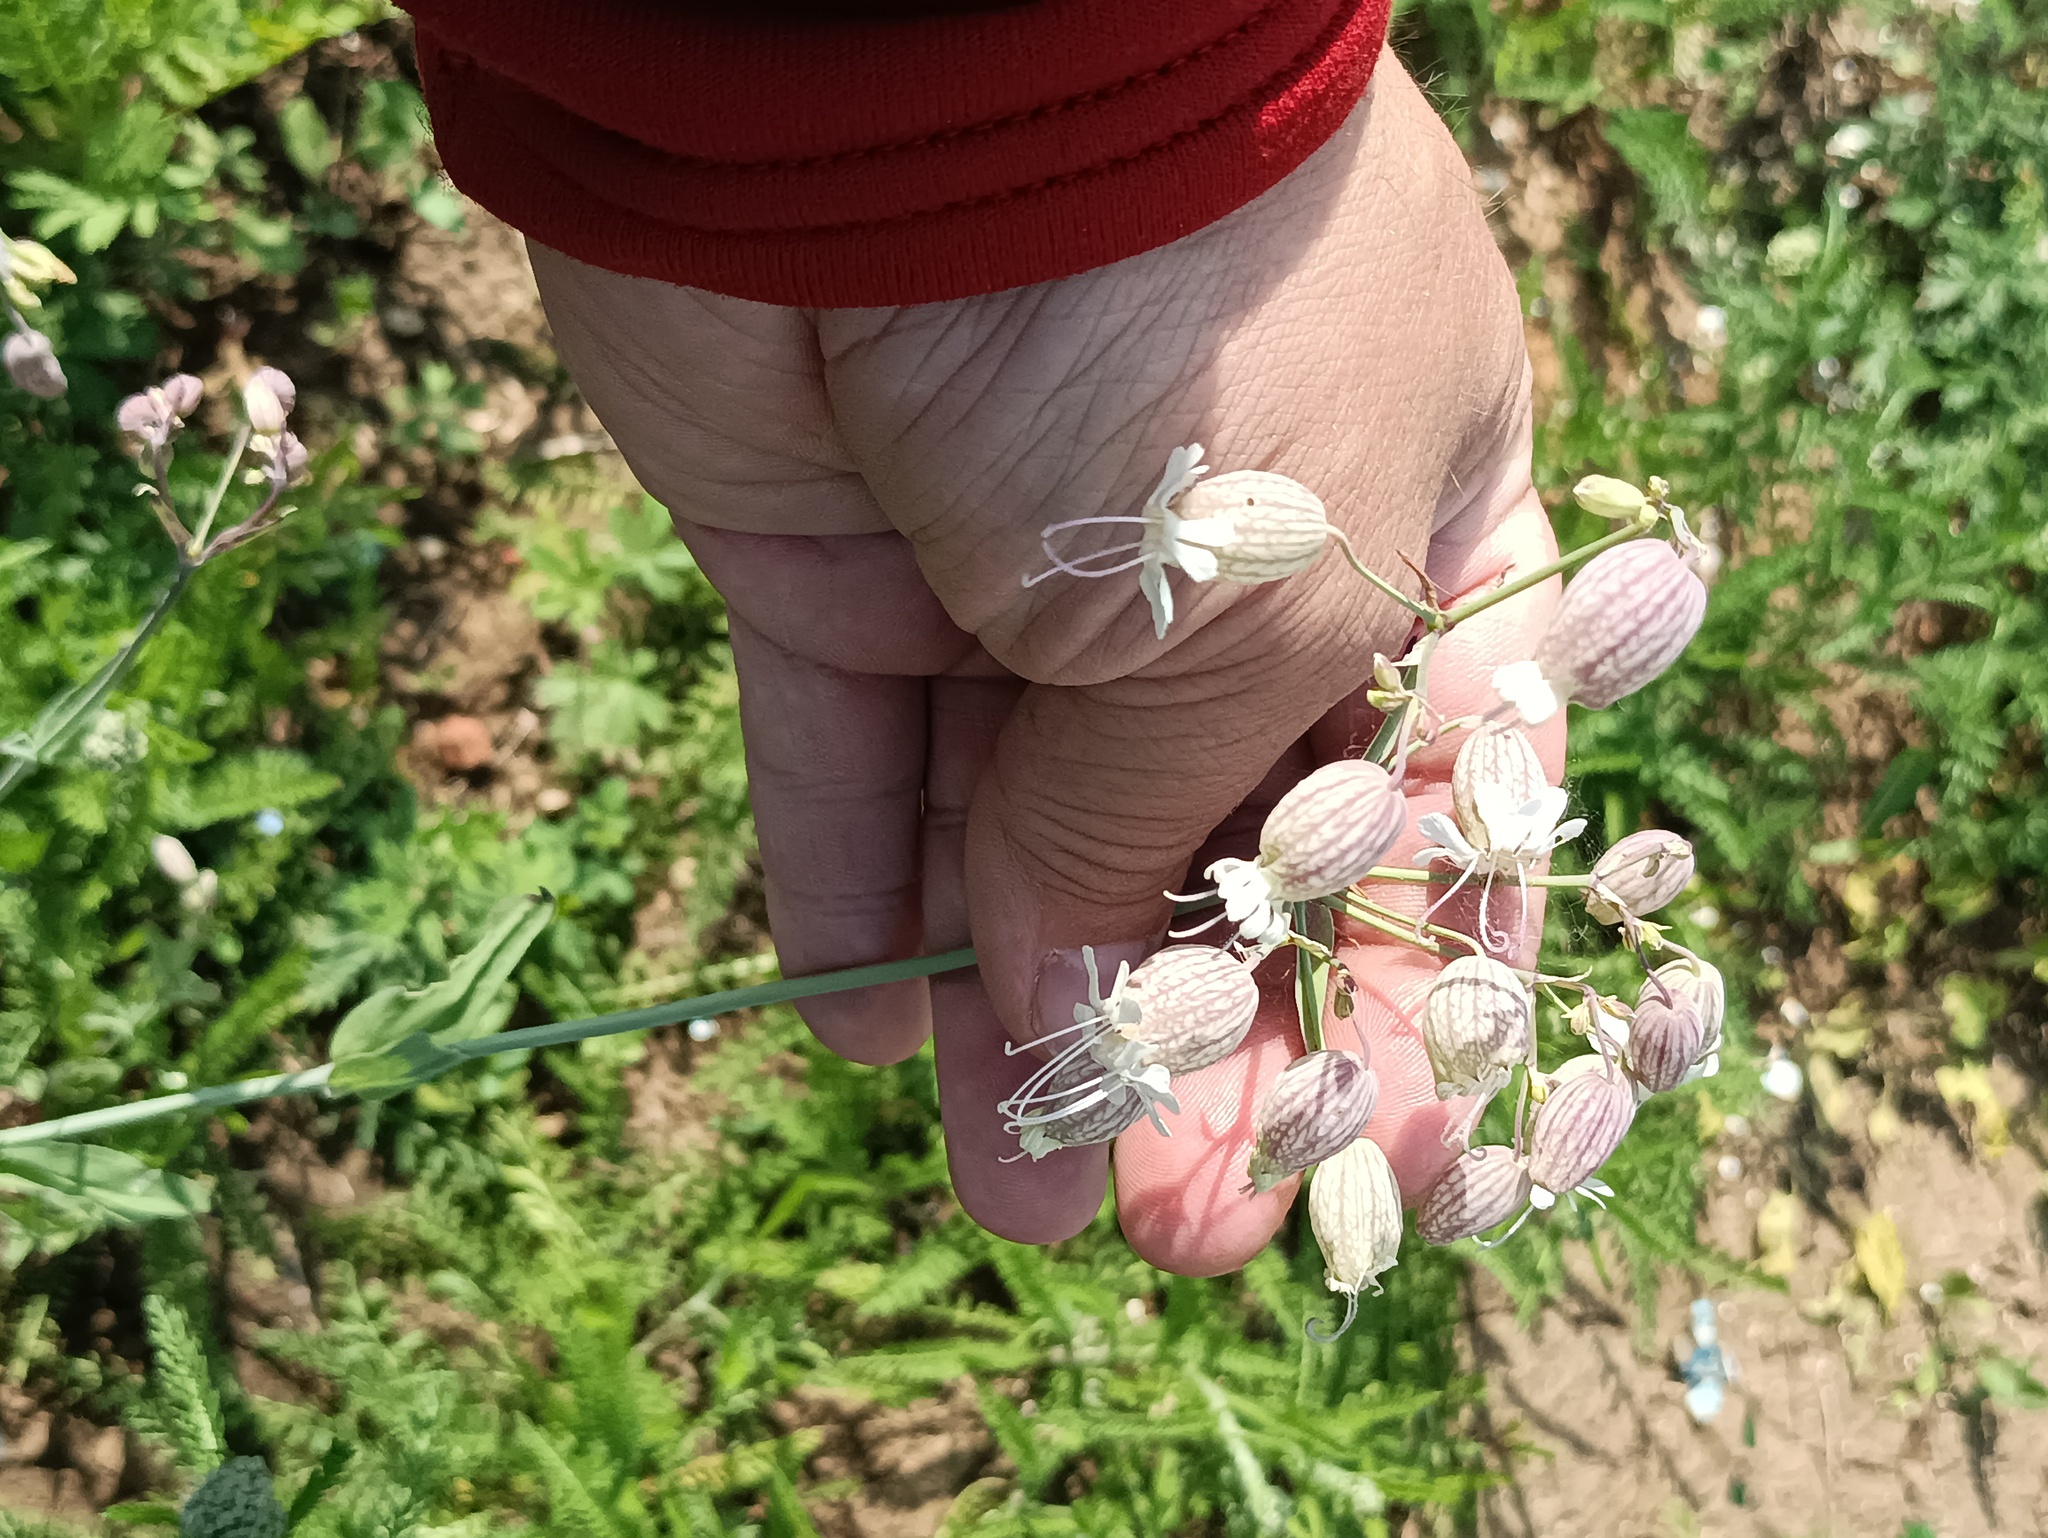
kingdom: Plantae
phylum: Tracheophyta
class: Magnoliopsida
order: Caryophyllales
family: Caryophyllaceae
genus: Silene
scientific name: Silene vulgaris
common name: Bladder campion
